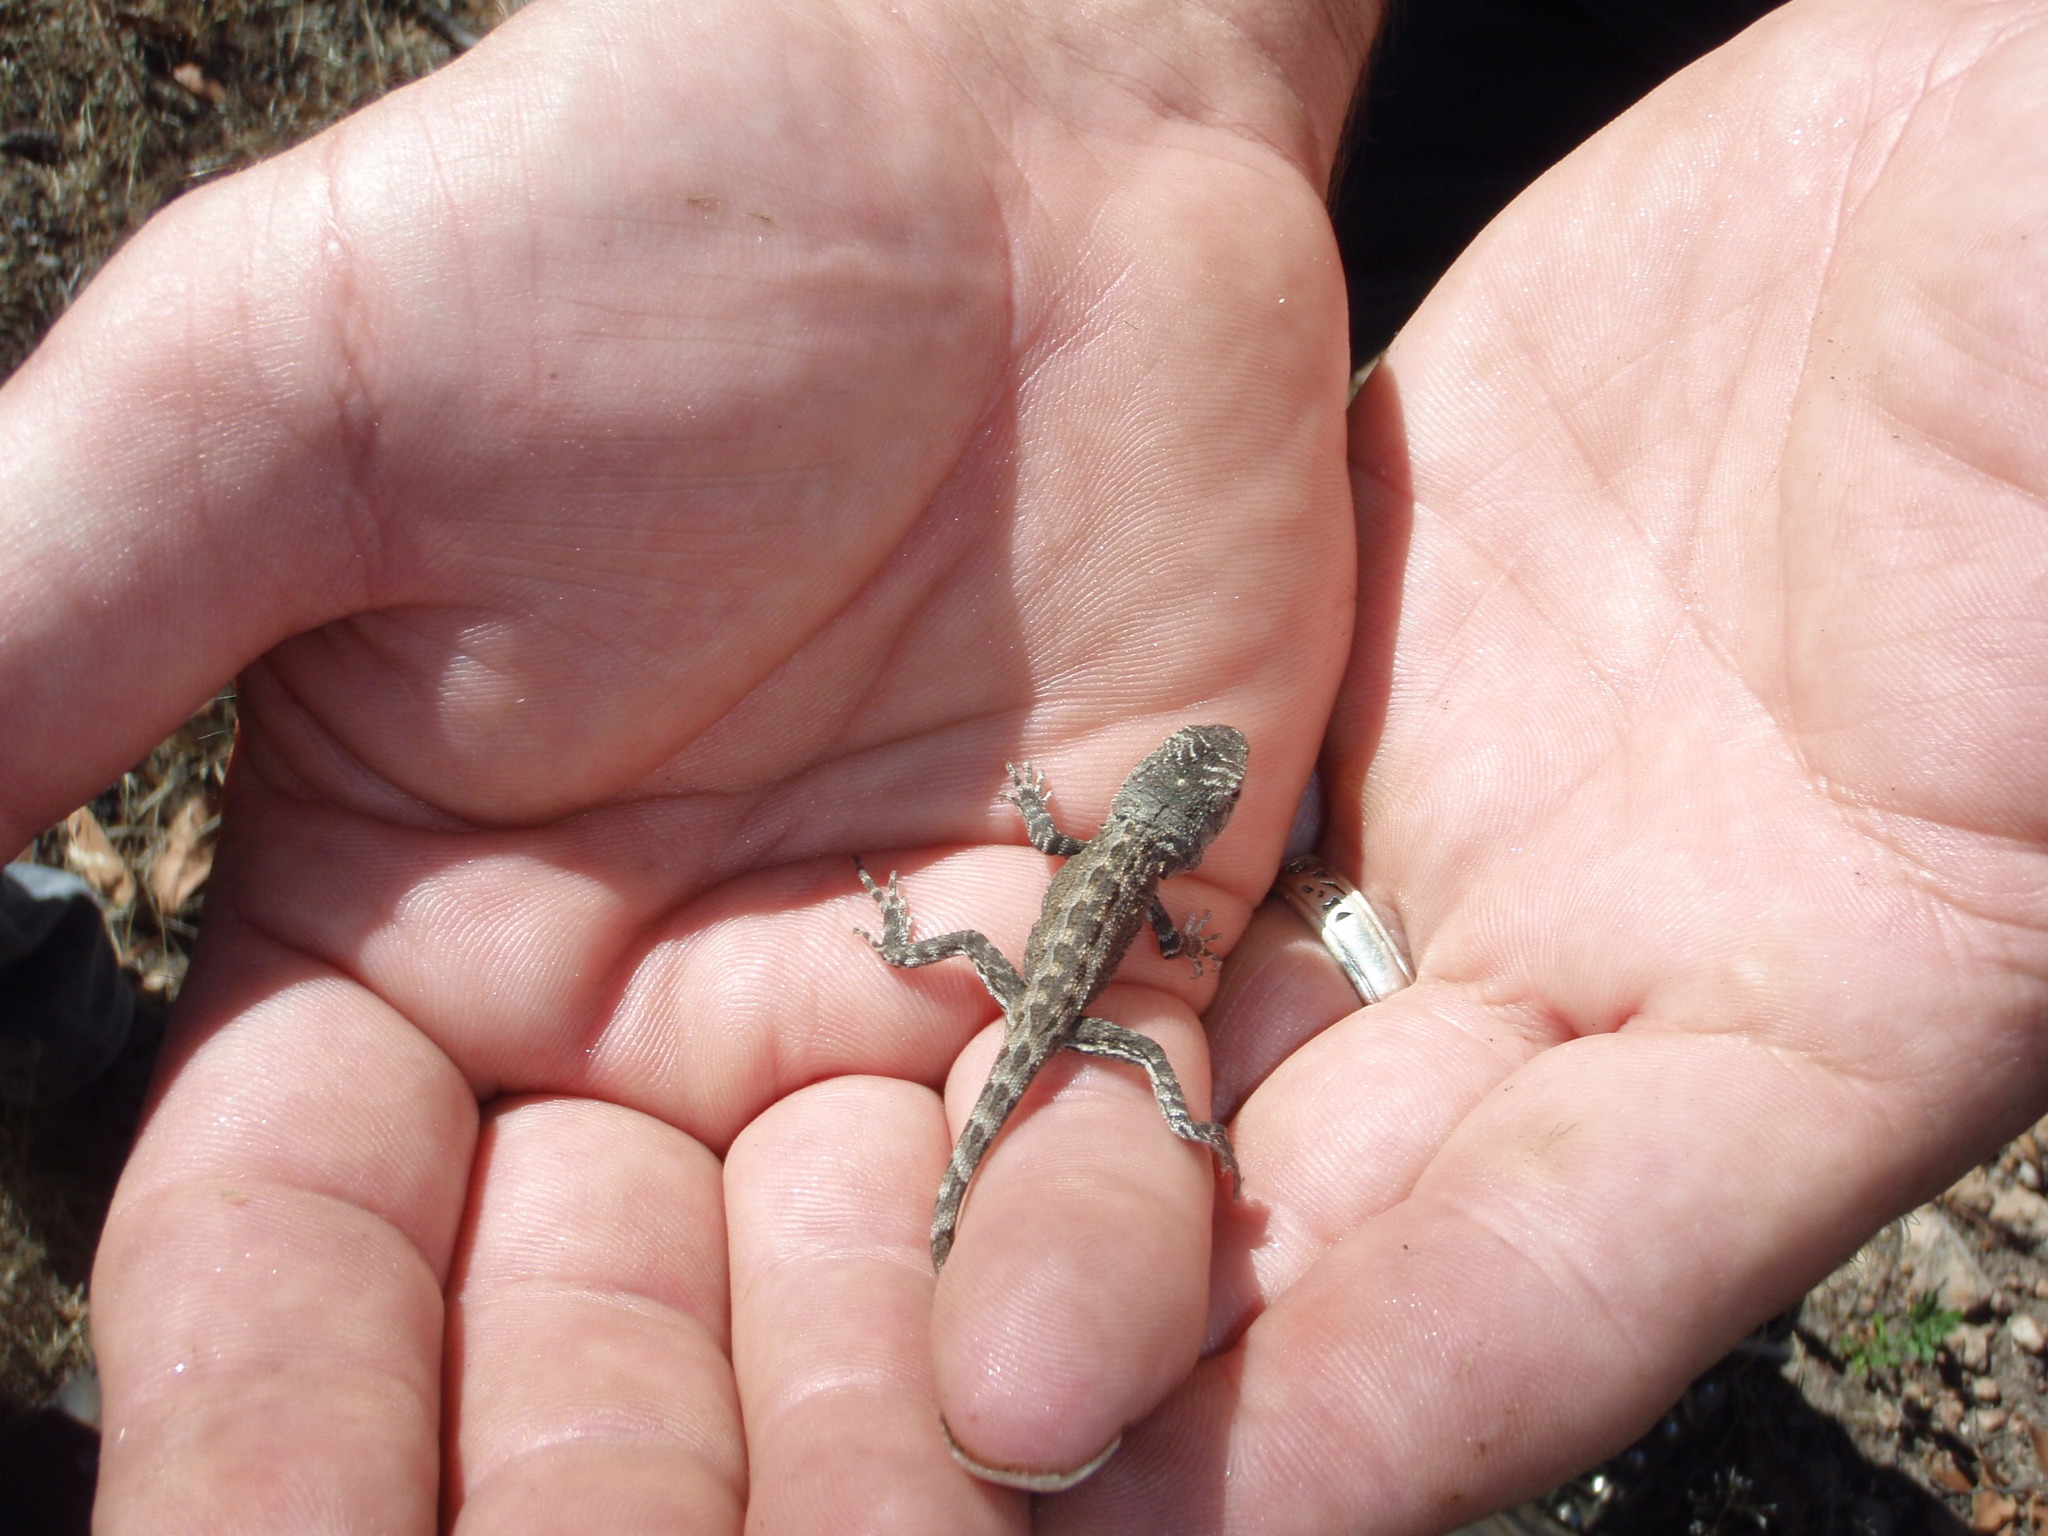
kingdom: Animalia
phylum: Chordata
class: Squamata
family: Agamidae
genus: Amphibolurus
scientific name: Amphibolurus muricatus
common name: Jacky lizard
